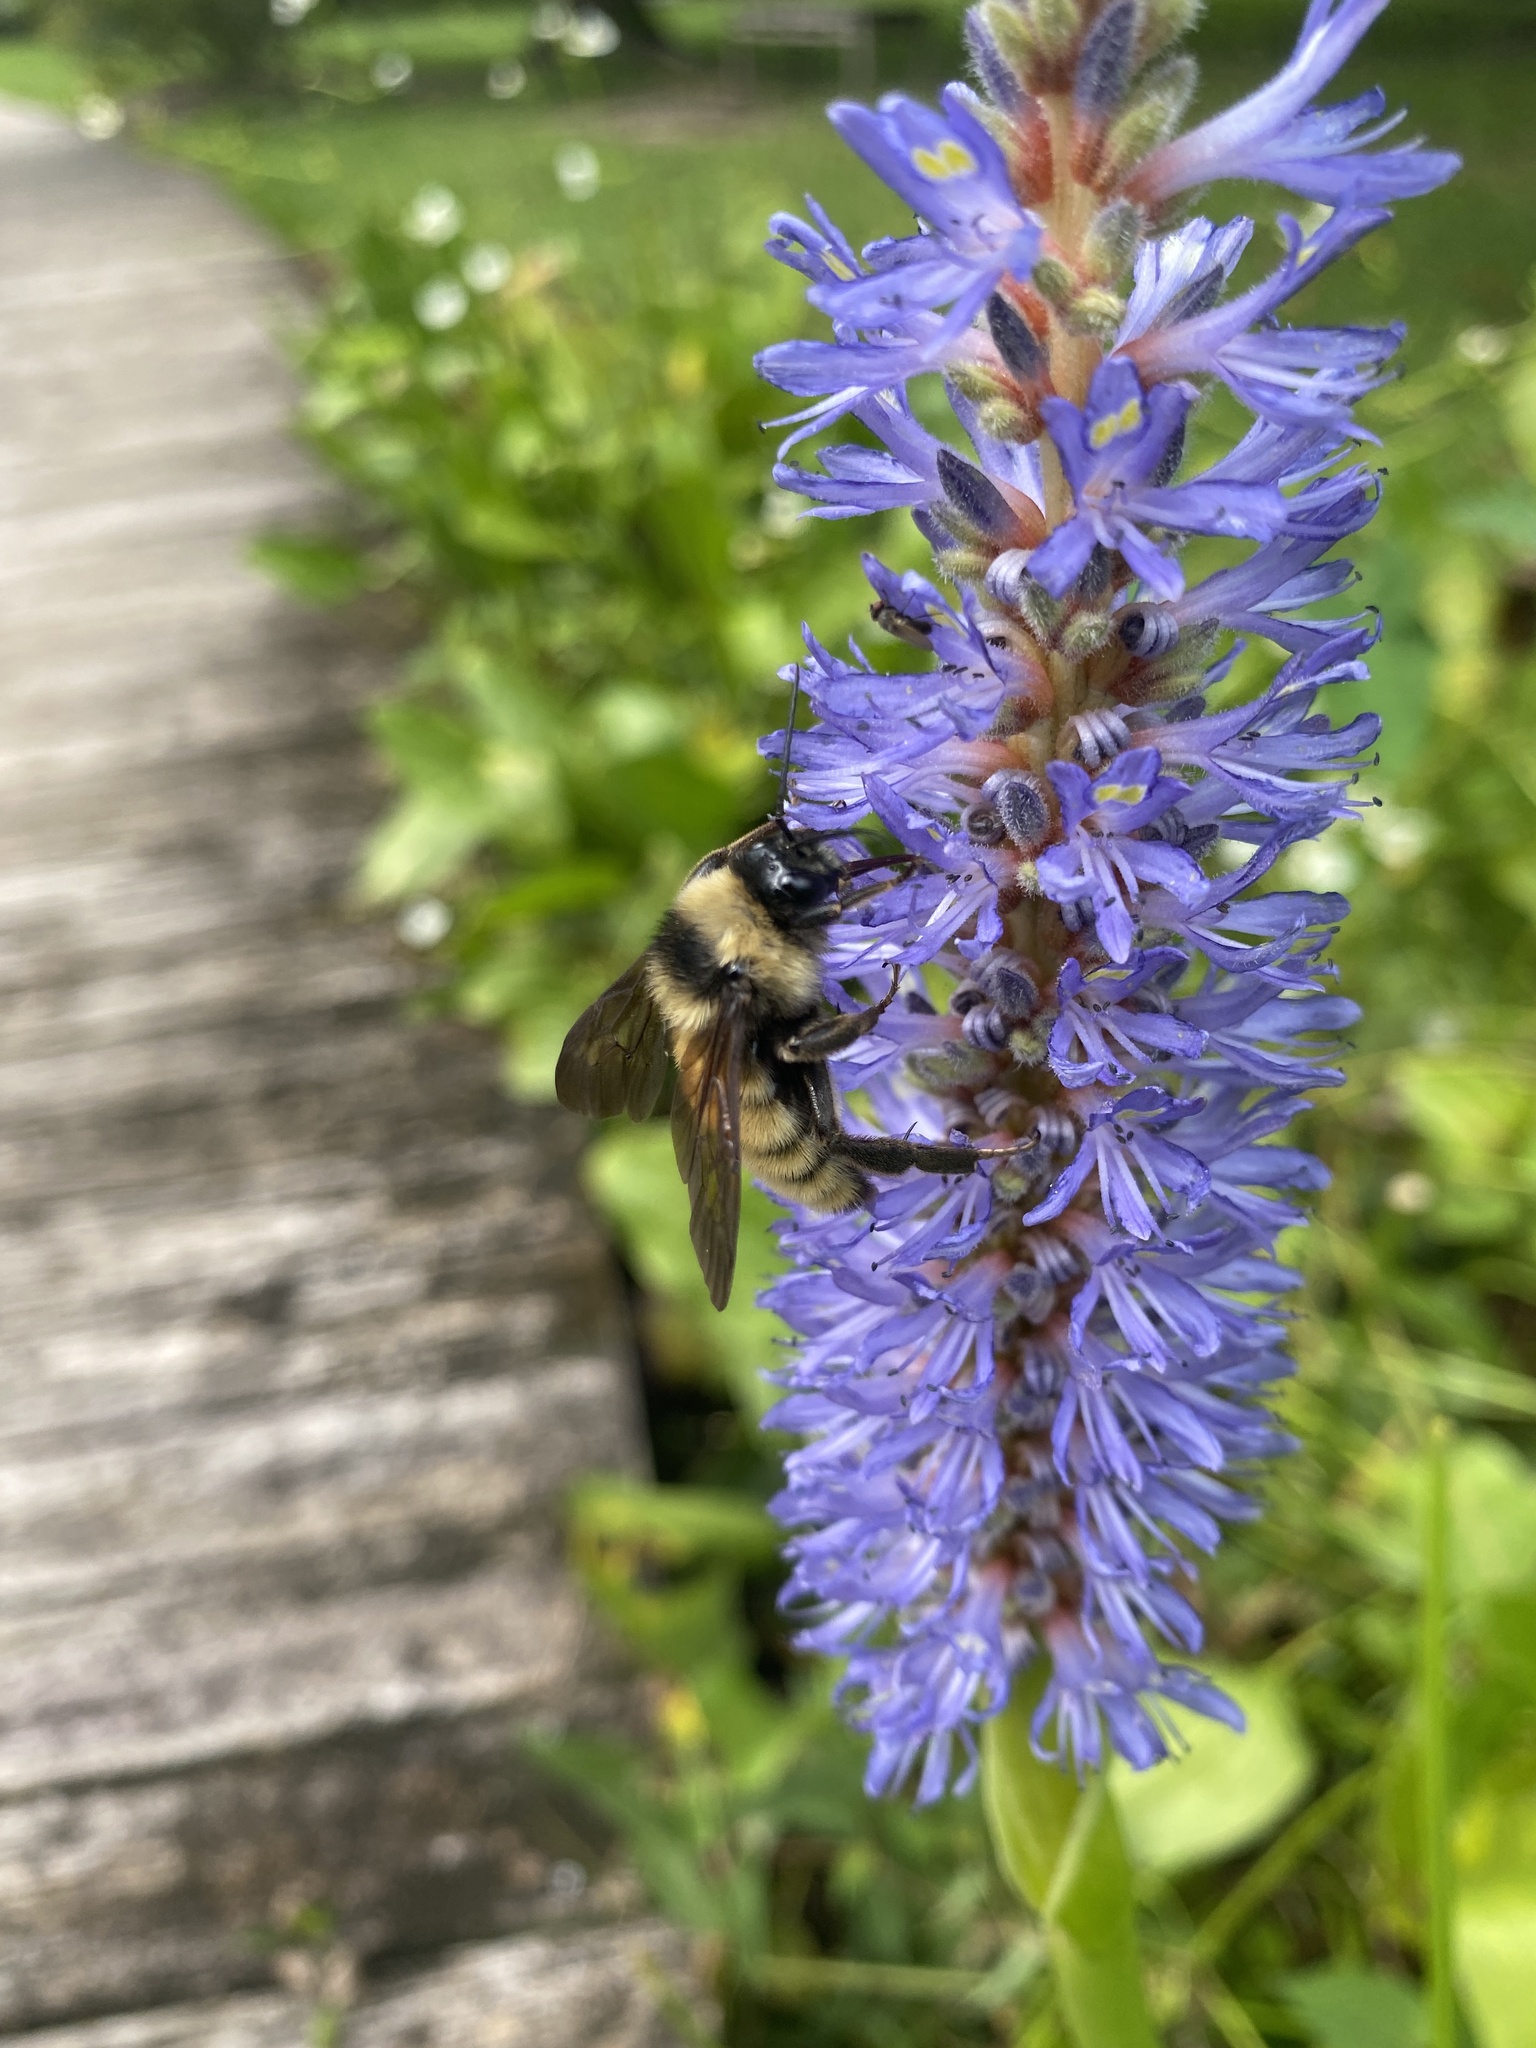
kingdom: Animalia
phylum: Arthropoda
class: Insecta
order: Hymenoptera
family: Apidae
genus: Bombus
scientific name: Bombus pensylvanicus
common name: Bumble bee
